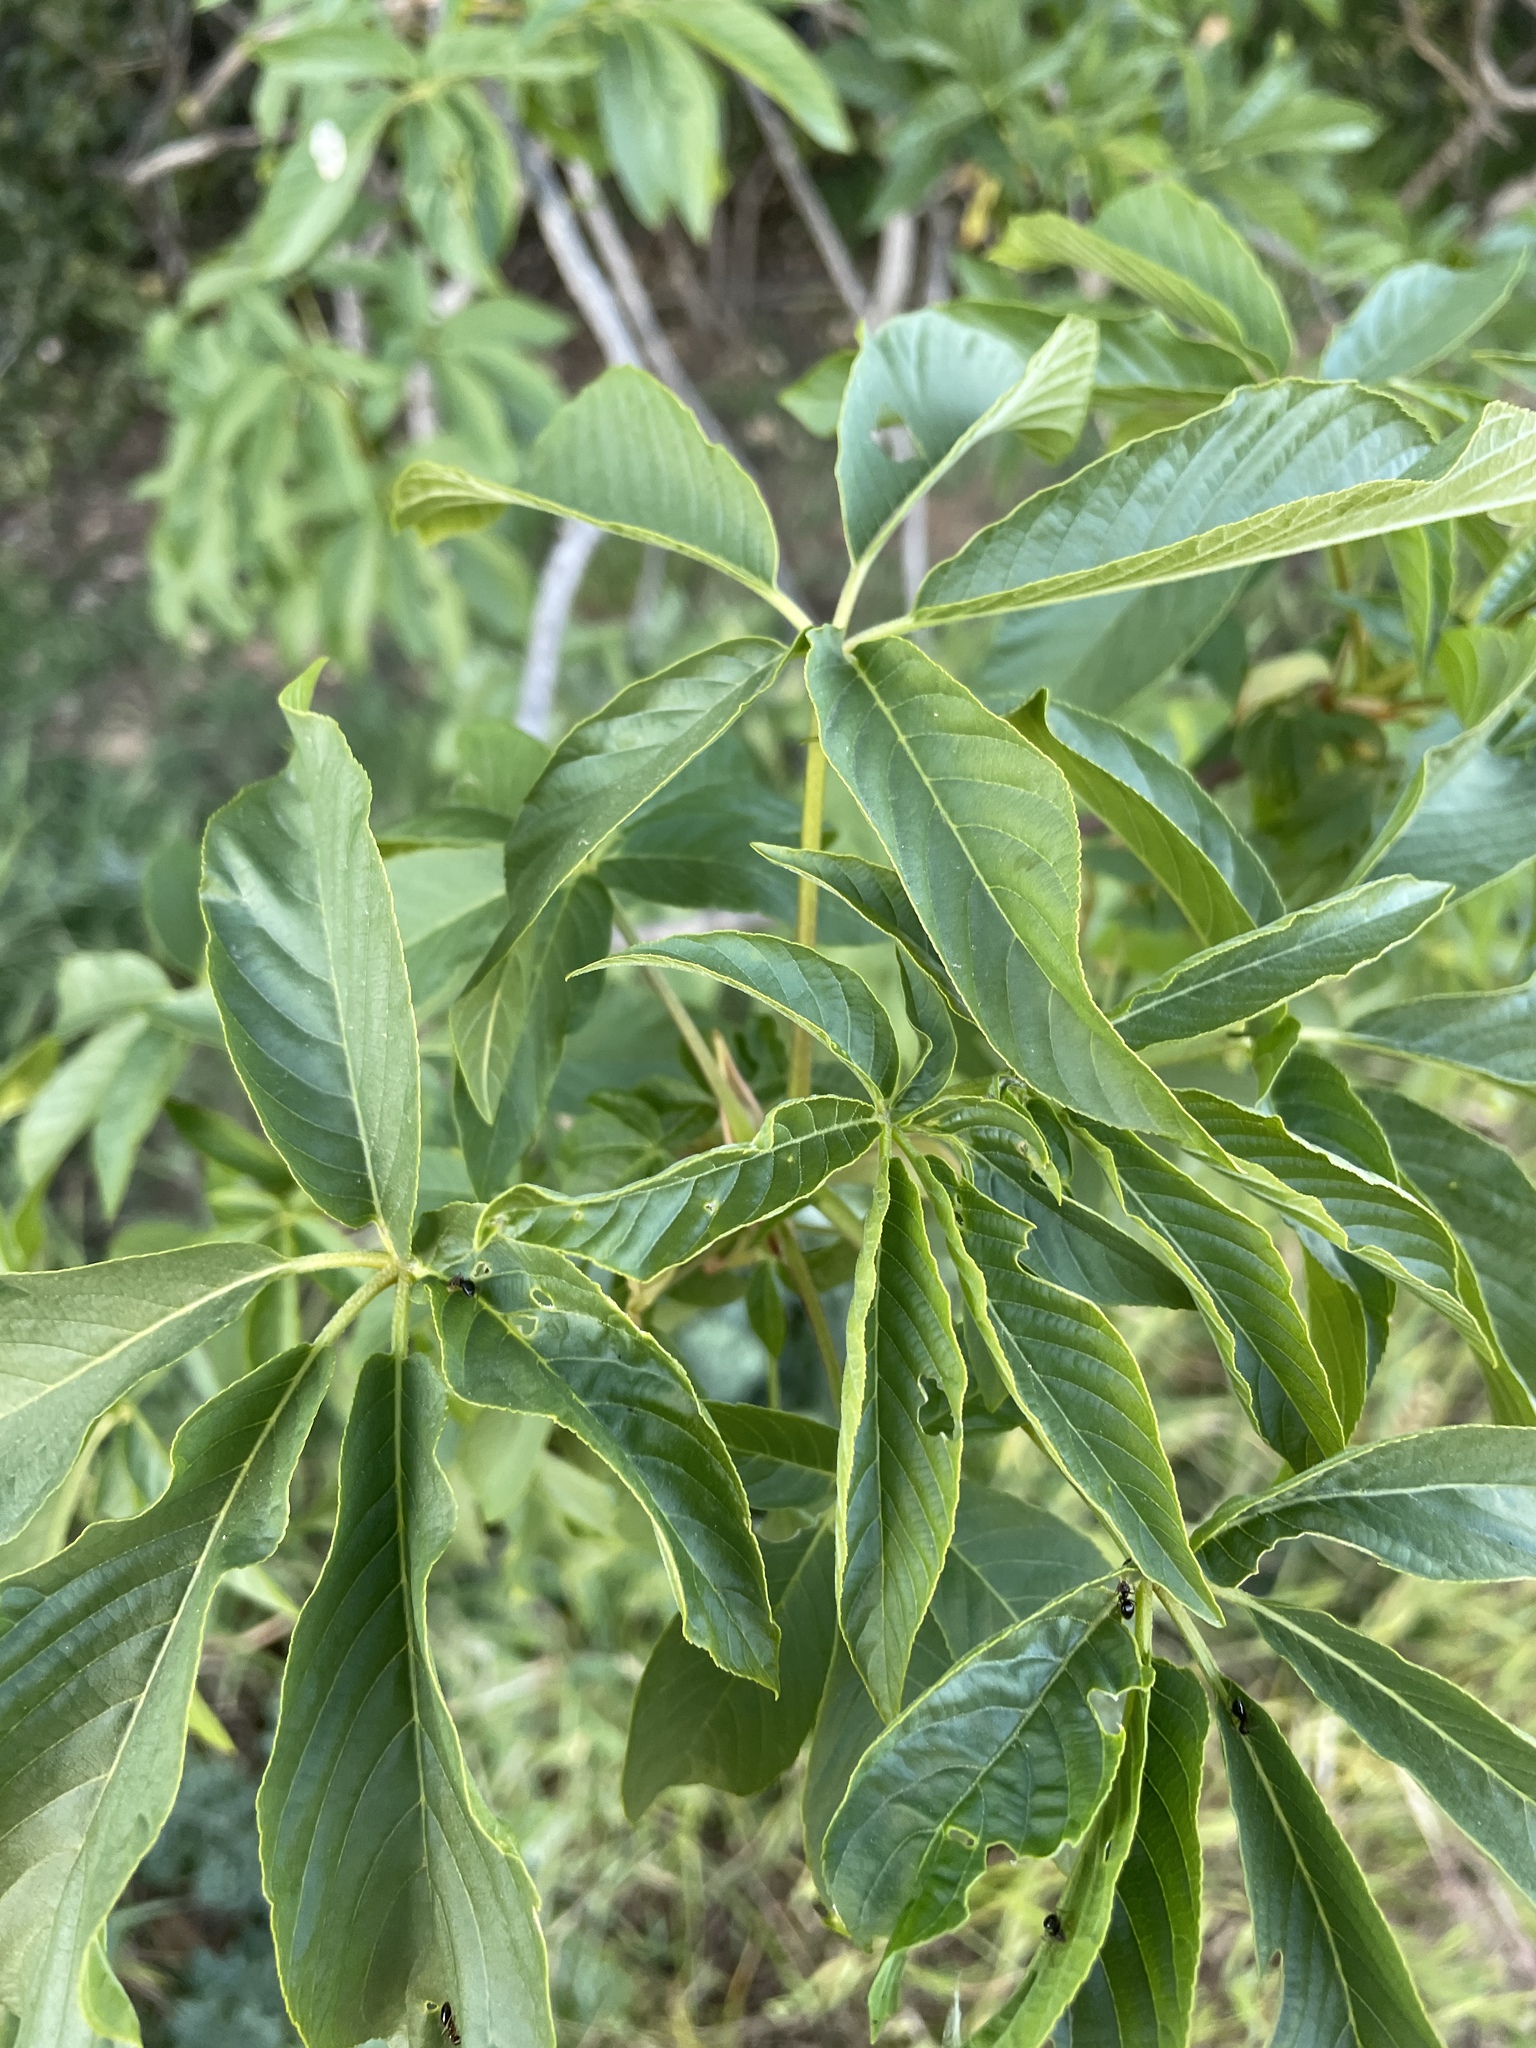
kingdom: Plantae
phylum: Tracheophyta
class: Magnoliopsida
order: Sapindales
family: Sapindaceae
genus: Aesculus
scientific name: Aesculus californica
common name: California buckeye
